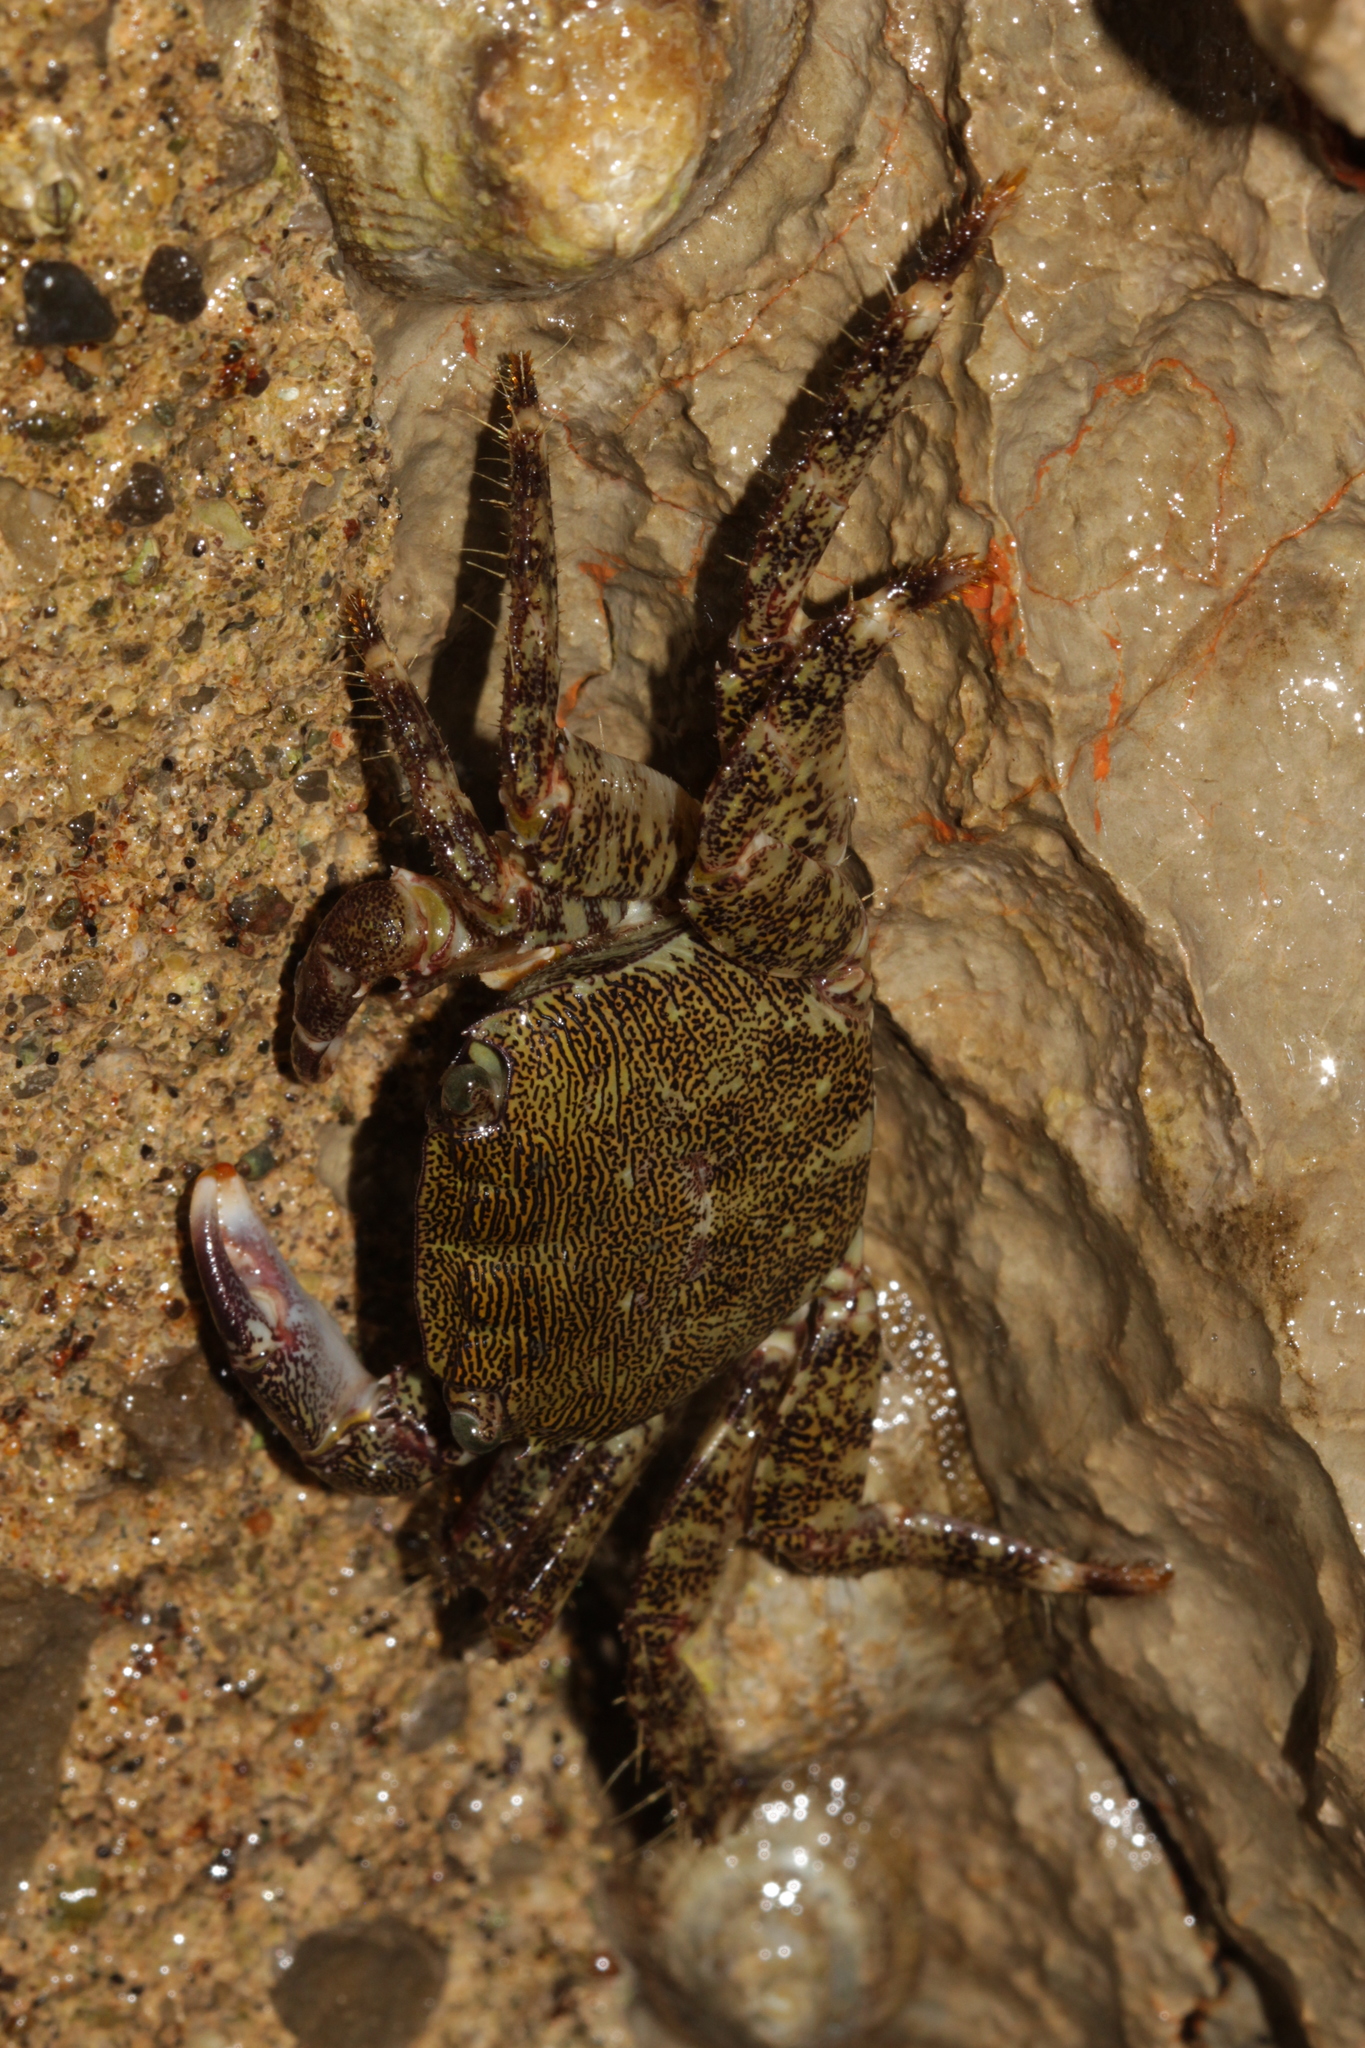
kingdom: Animalia
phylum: Arthropoda
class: Malacostraca
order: Decapoda
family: Grapsidae
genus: Pachygrapsus
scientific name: Pachygrapsus marmoratus
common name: Marbled rock crab
